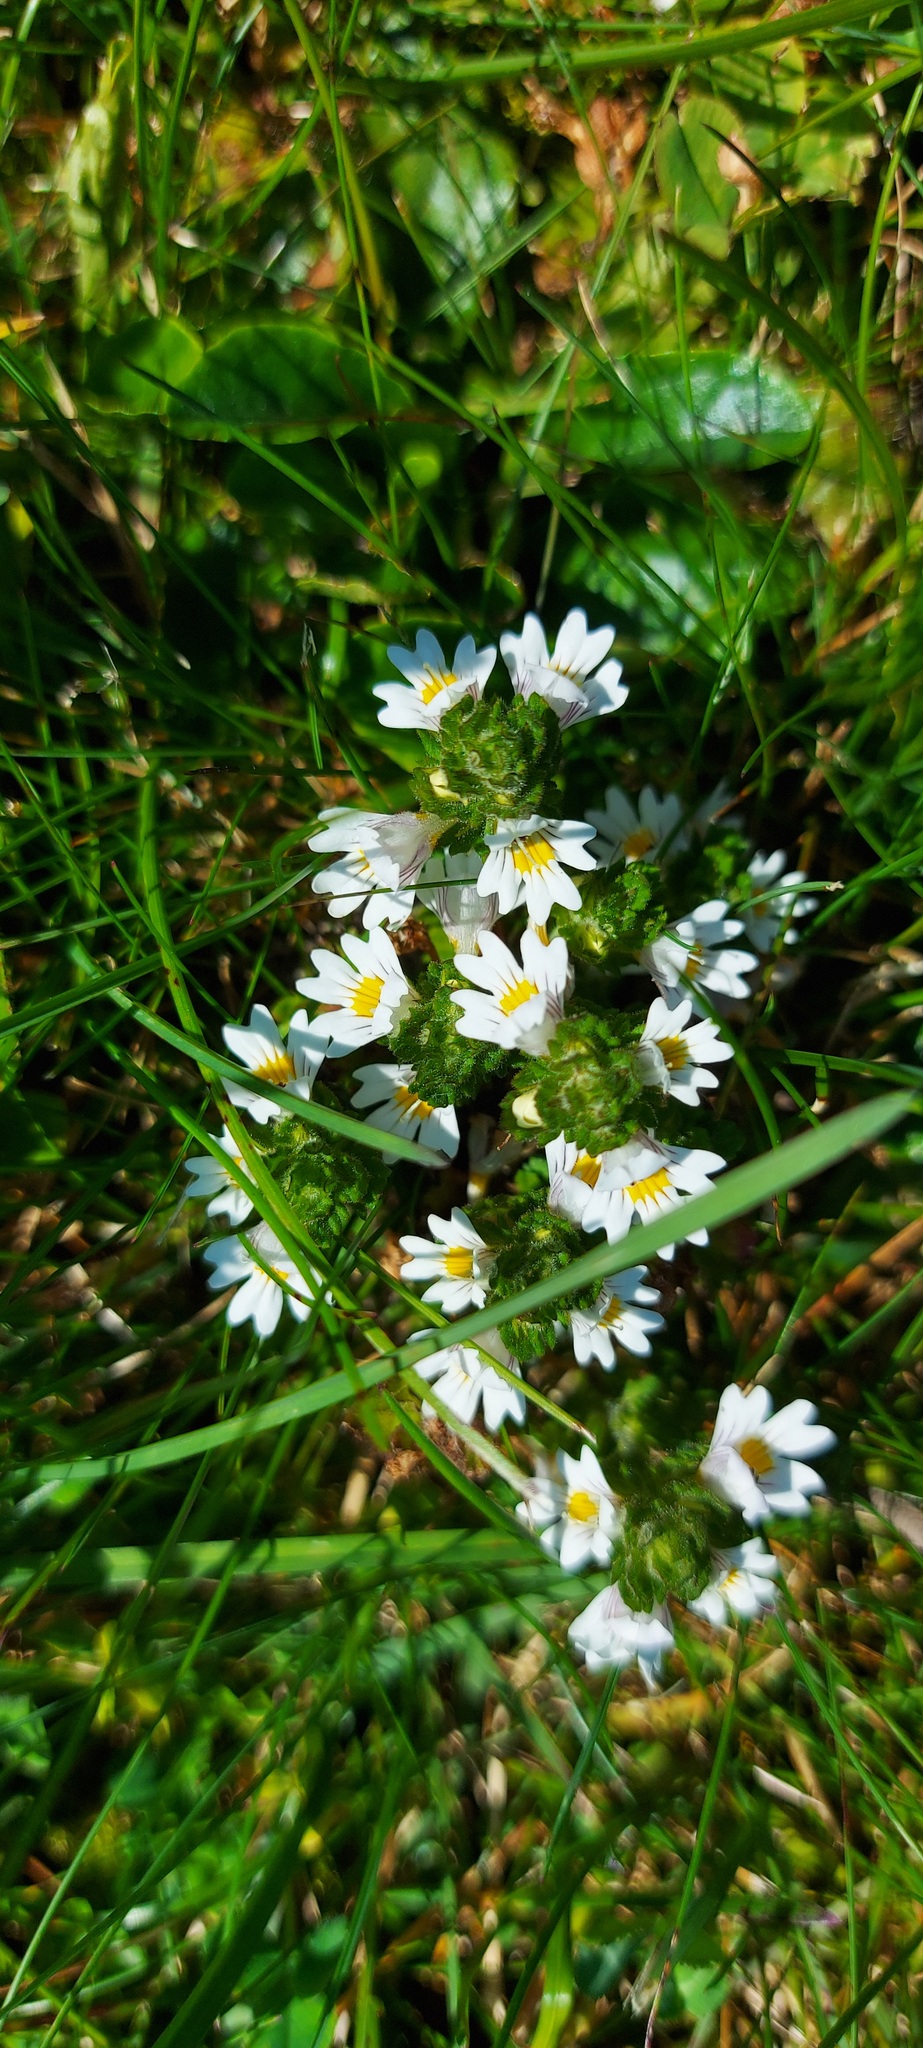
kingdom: Plantae
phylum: Tracheophyta
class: Magnoliopsida
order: Lamiales
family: Orobanchaceae
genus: Euphrasia
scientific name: Euphrasia officinalis
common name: Eyebright
